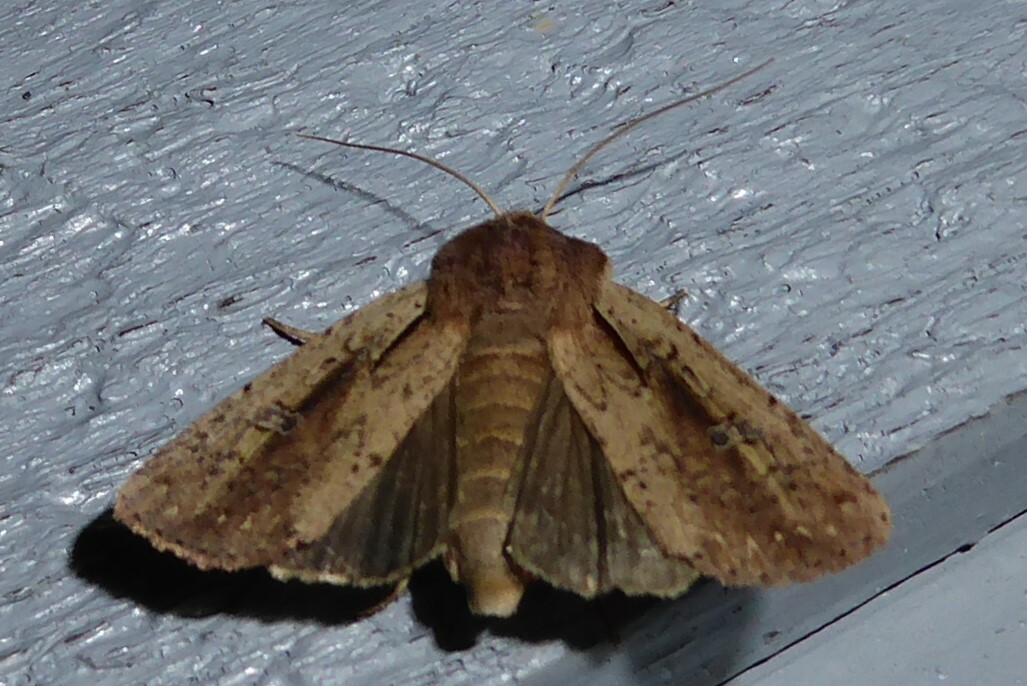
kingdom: Animalia
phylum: Arthropoda
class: Insecta
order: Lepidoptera
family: Noctuidae
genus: Ichneutica
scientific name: Ichneutica atristriga
